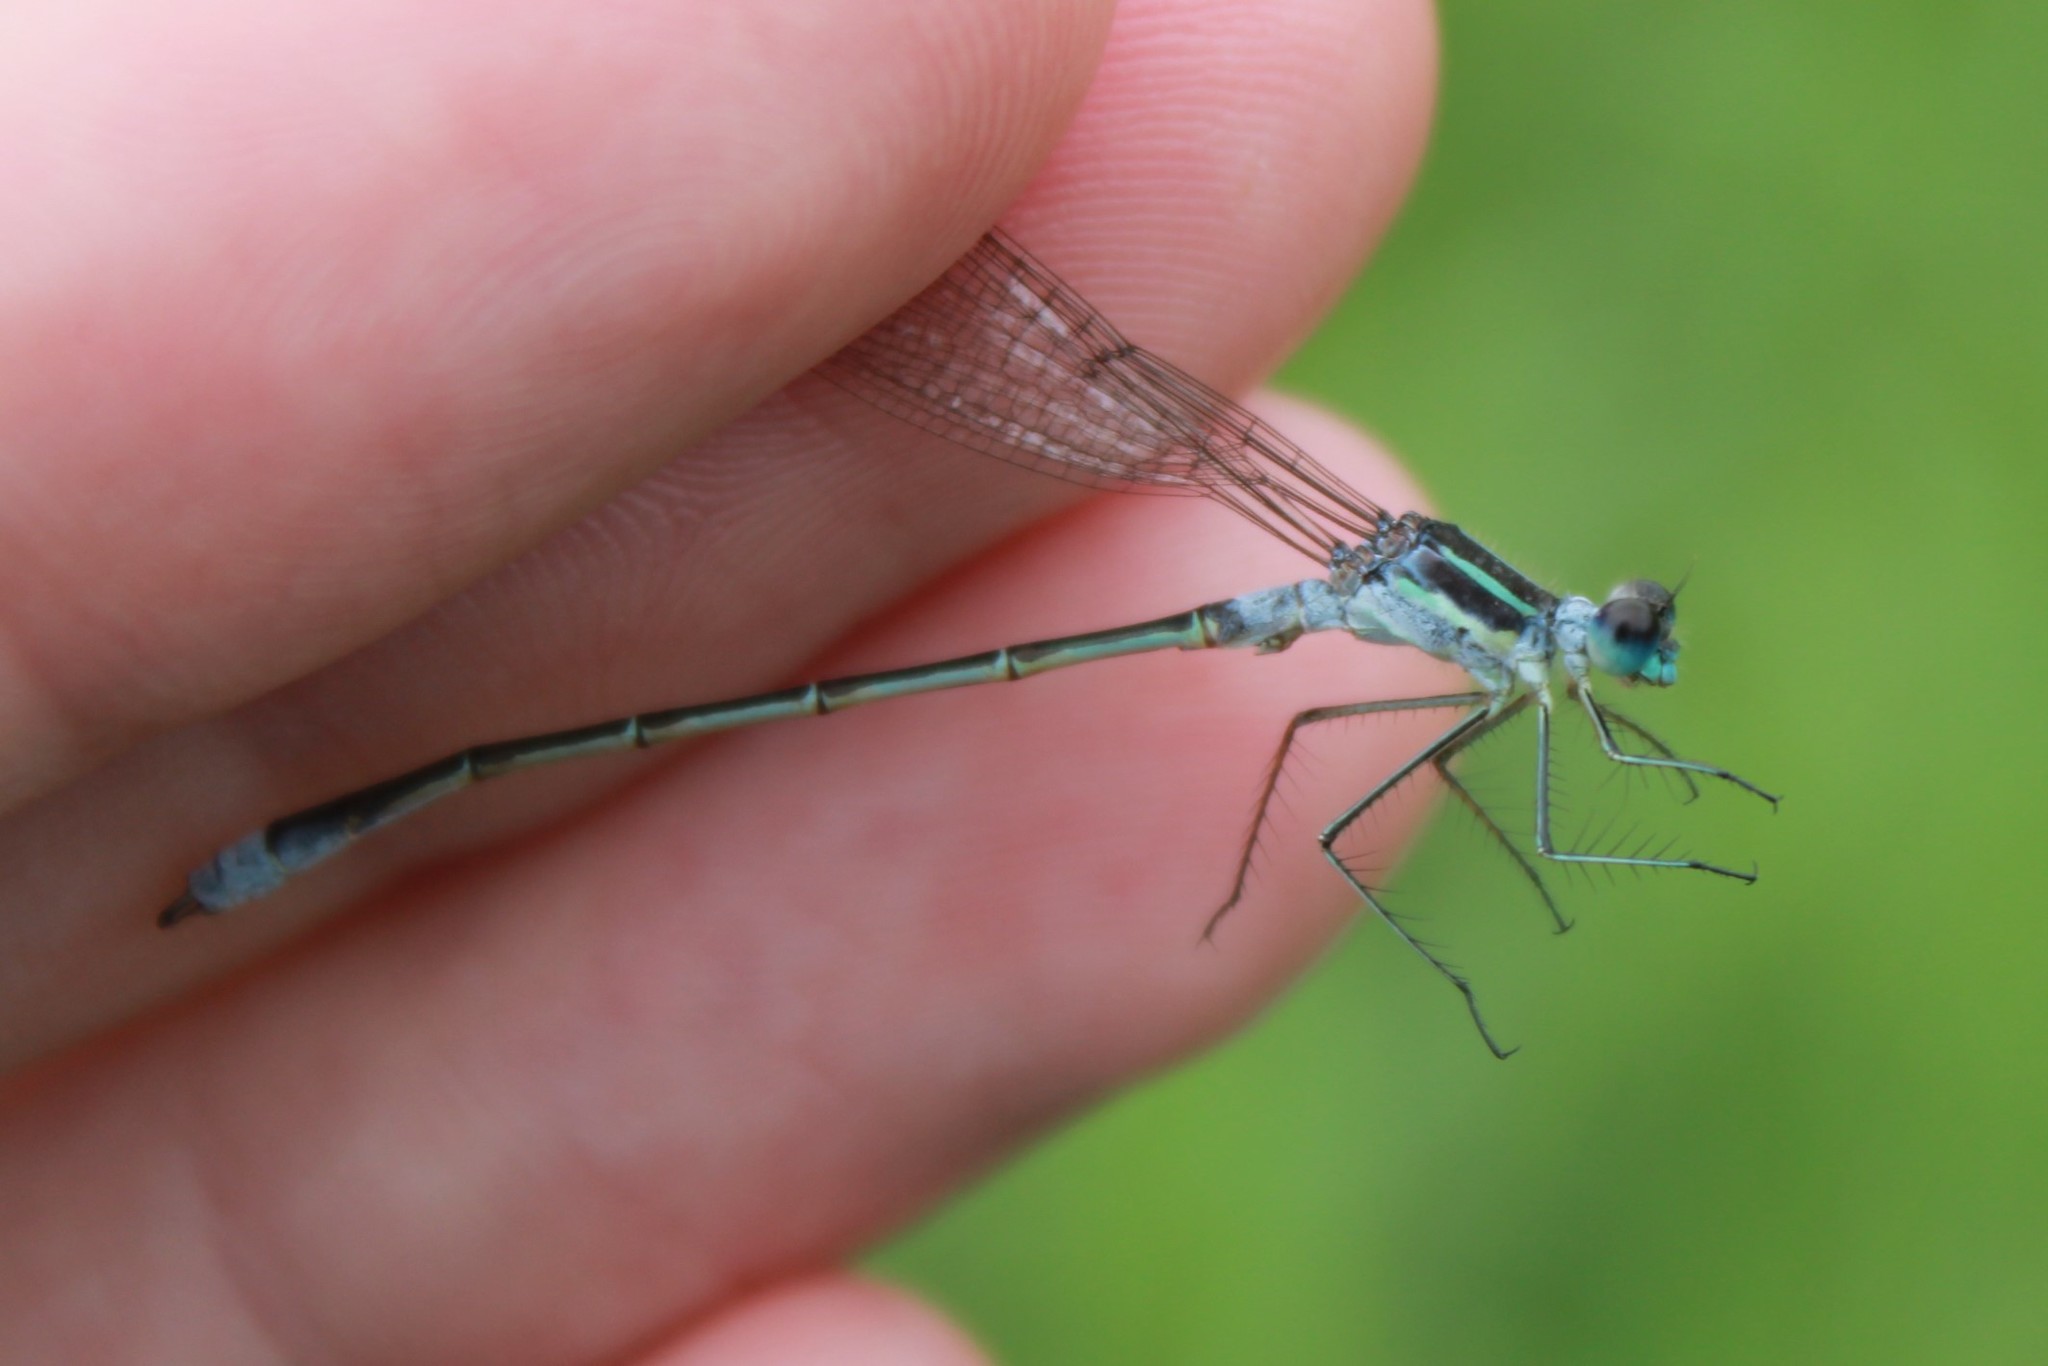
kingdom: Animalia
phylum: Arthropoda
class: Insecta
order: Odonata
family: Lestidae
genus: Lestes
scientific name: Lestes disjunctus
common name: Northern spreadwing
